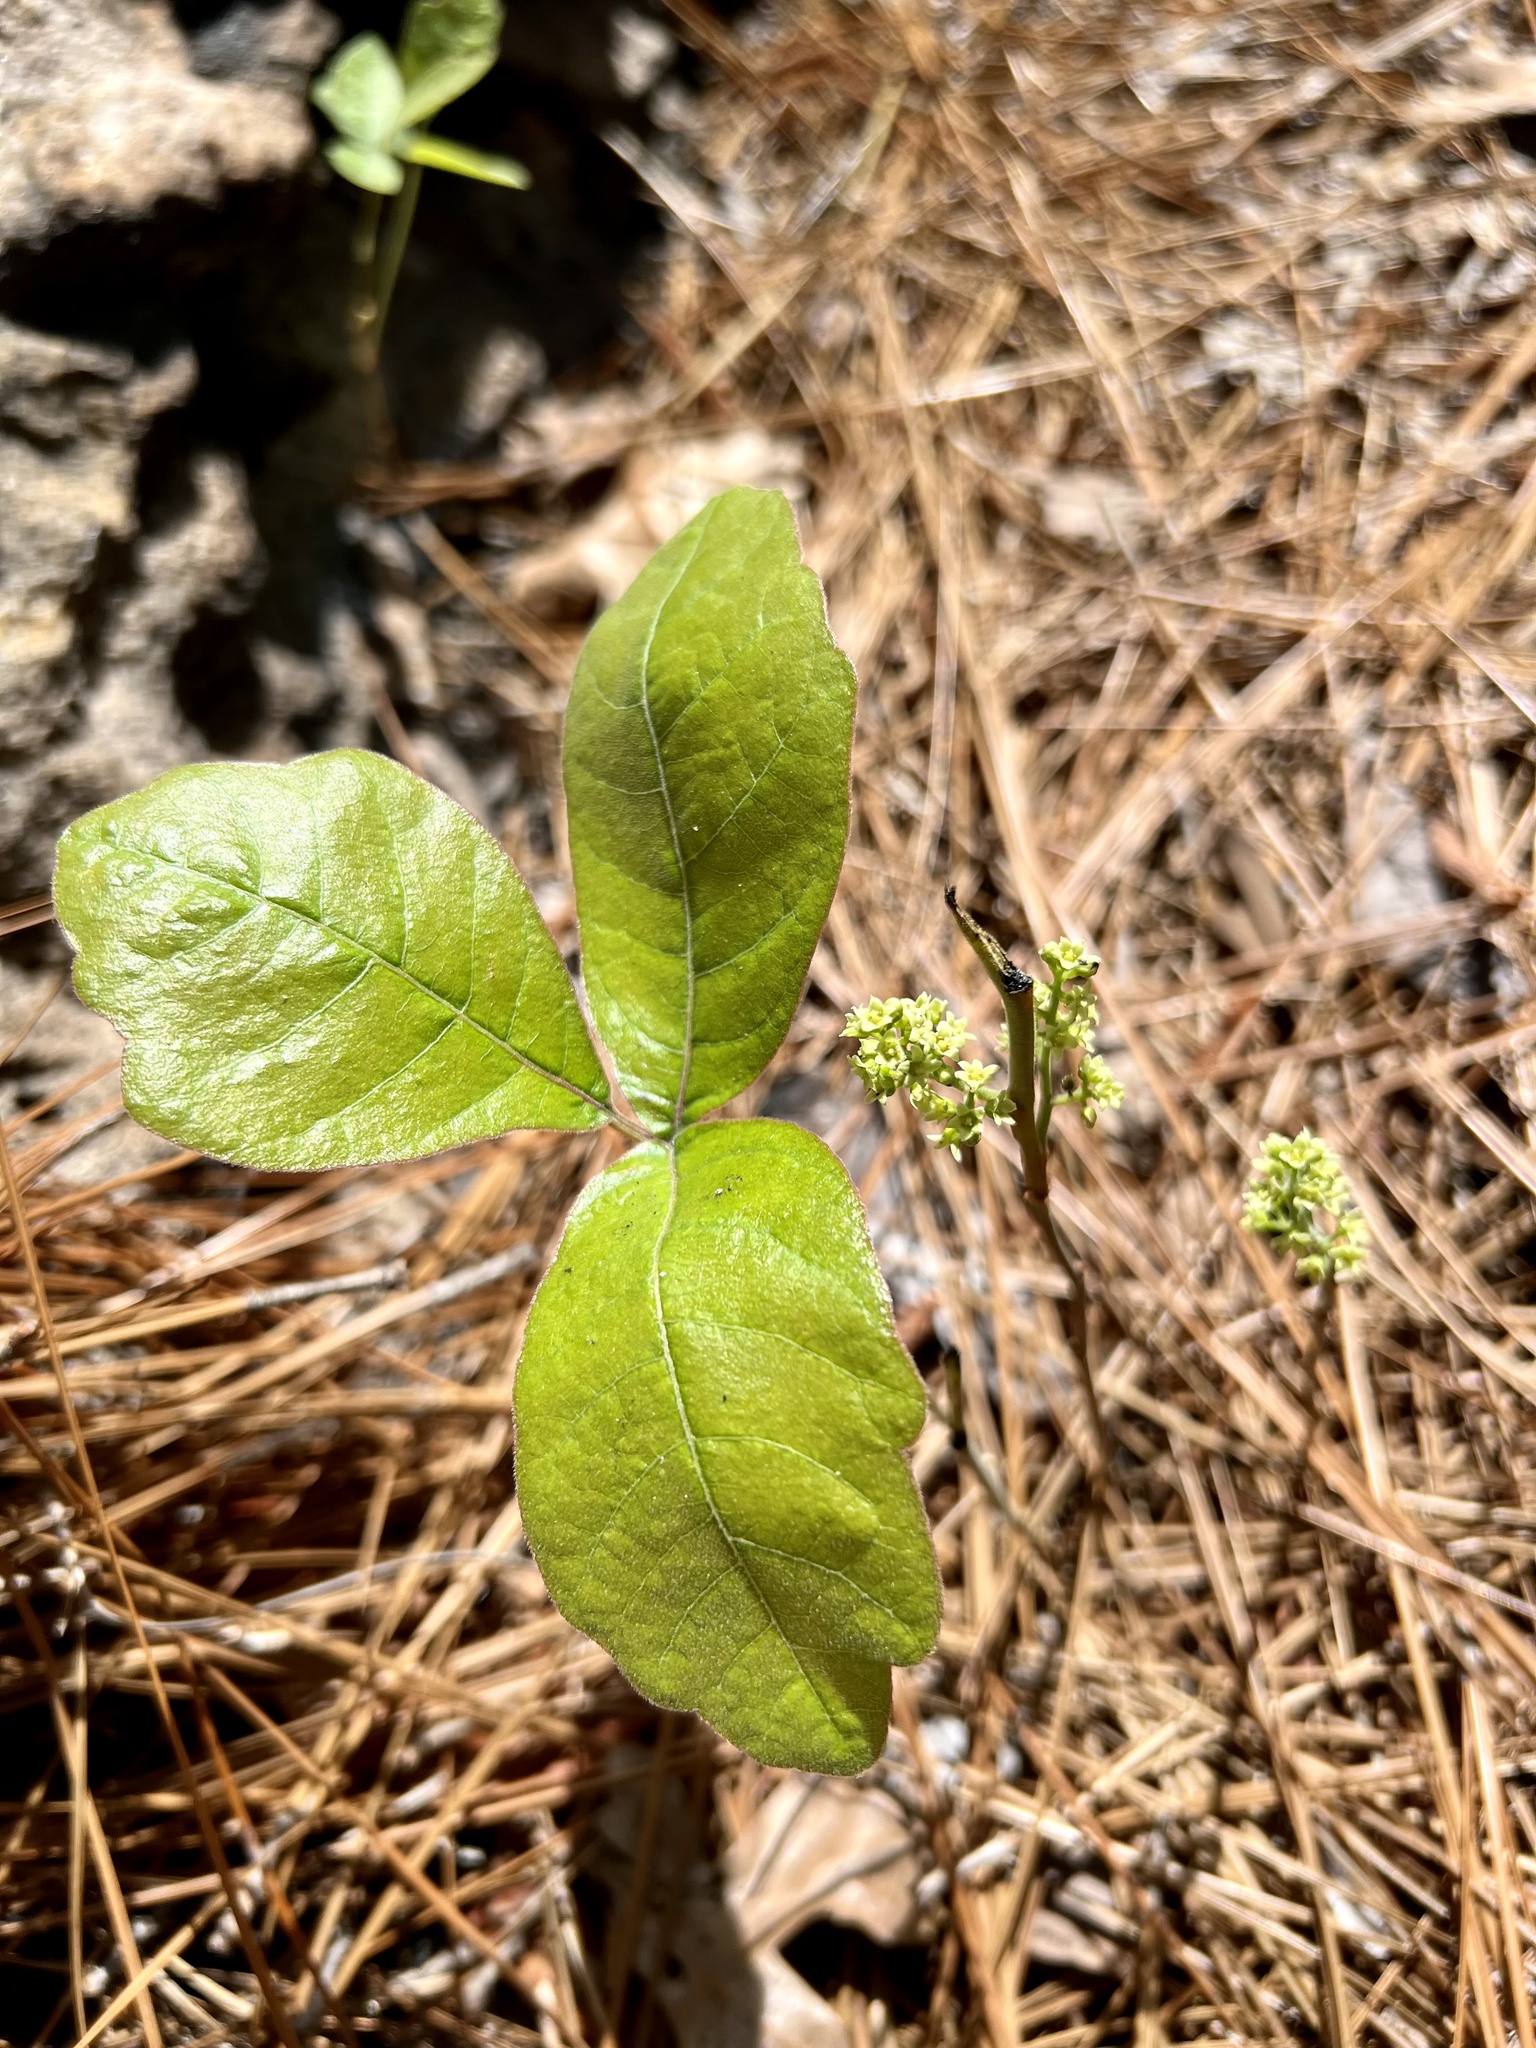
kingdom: Plantae
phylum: Tracheophyta
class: Magnoliopsida
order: Sapindales
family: Anacardiaceae
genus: Toxicodendron
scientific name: Toxicodendron pubescens
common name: Eastern poison-oak
